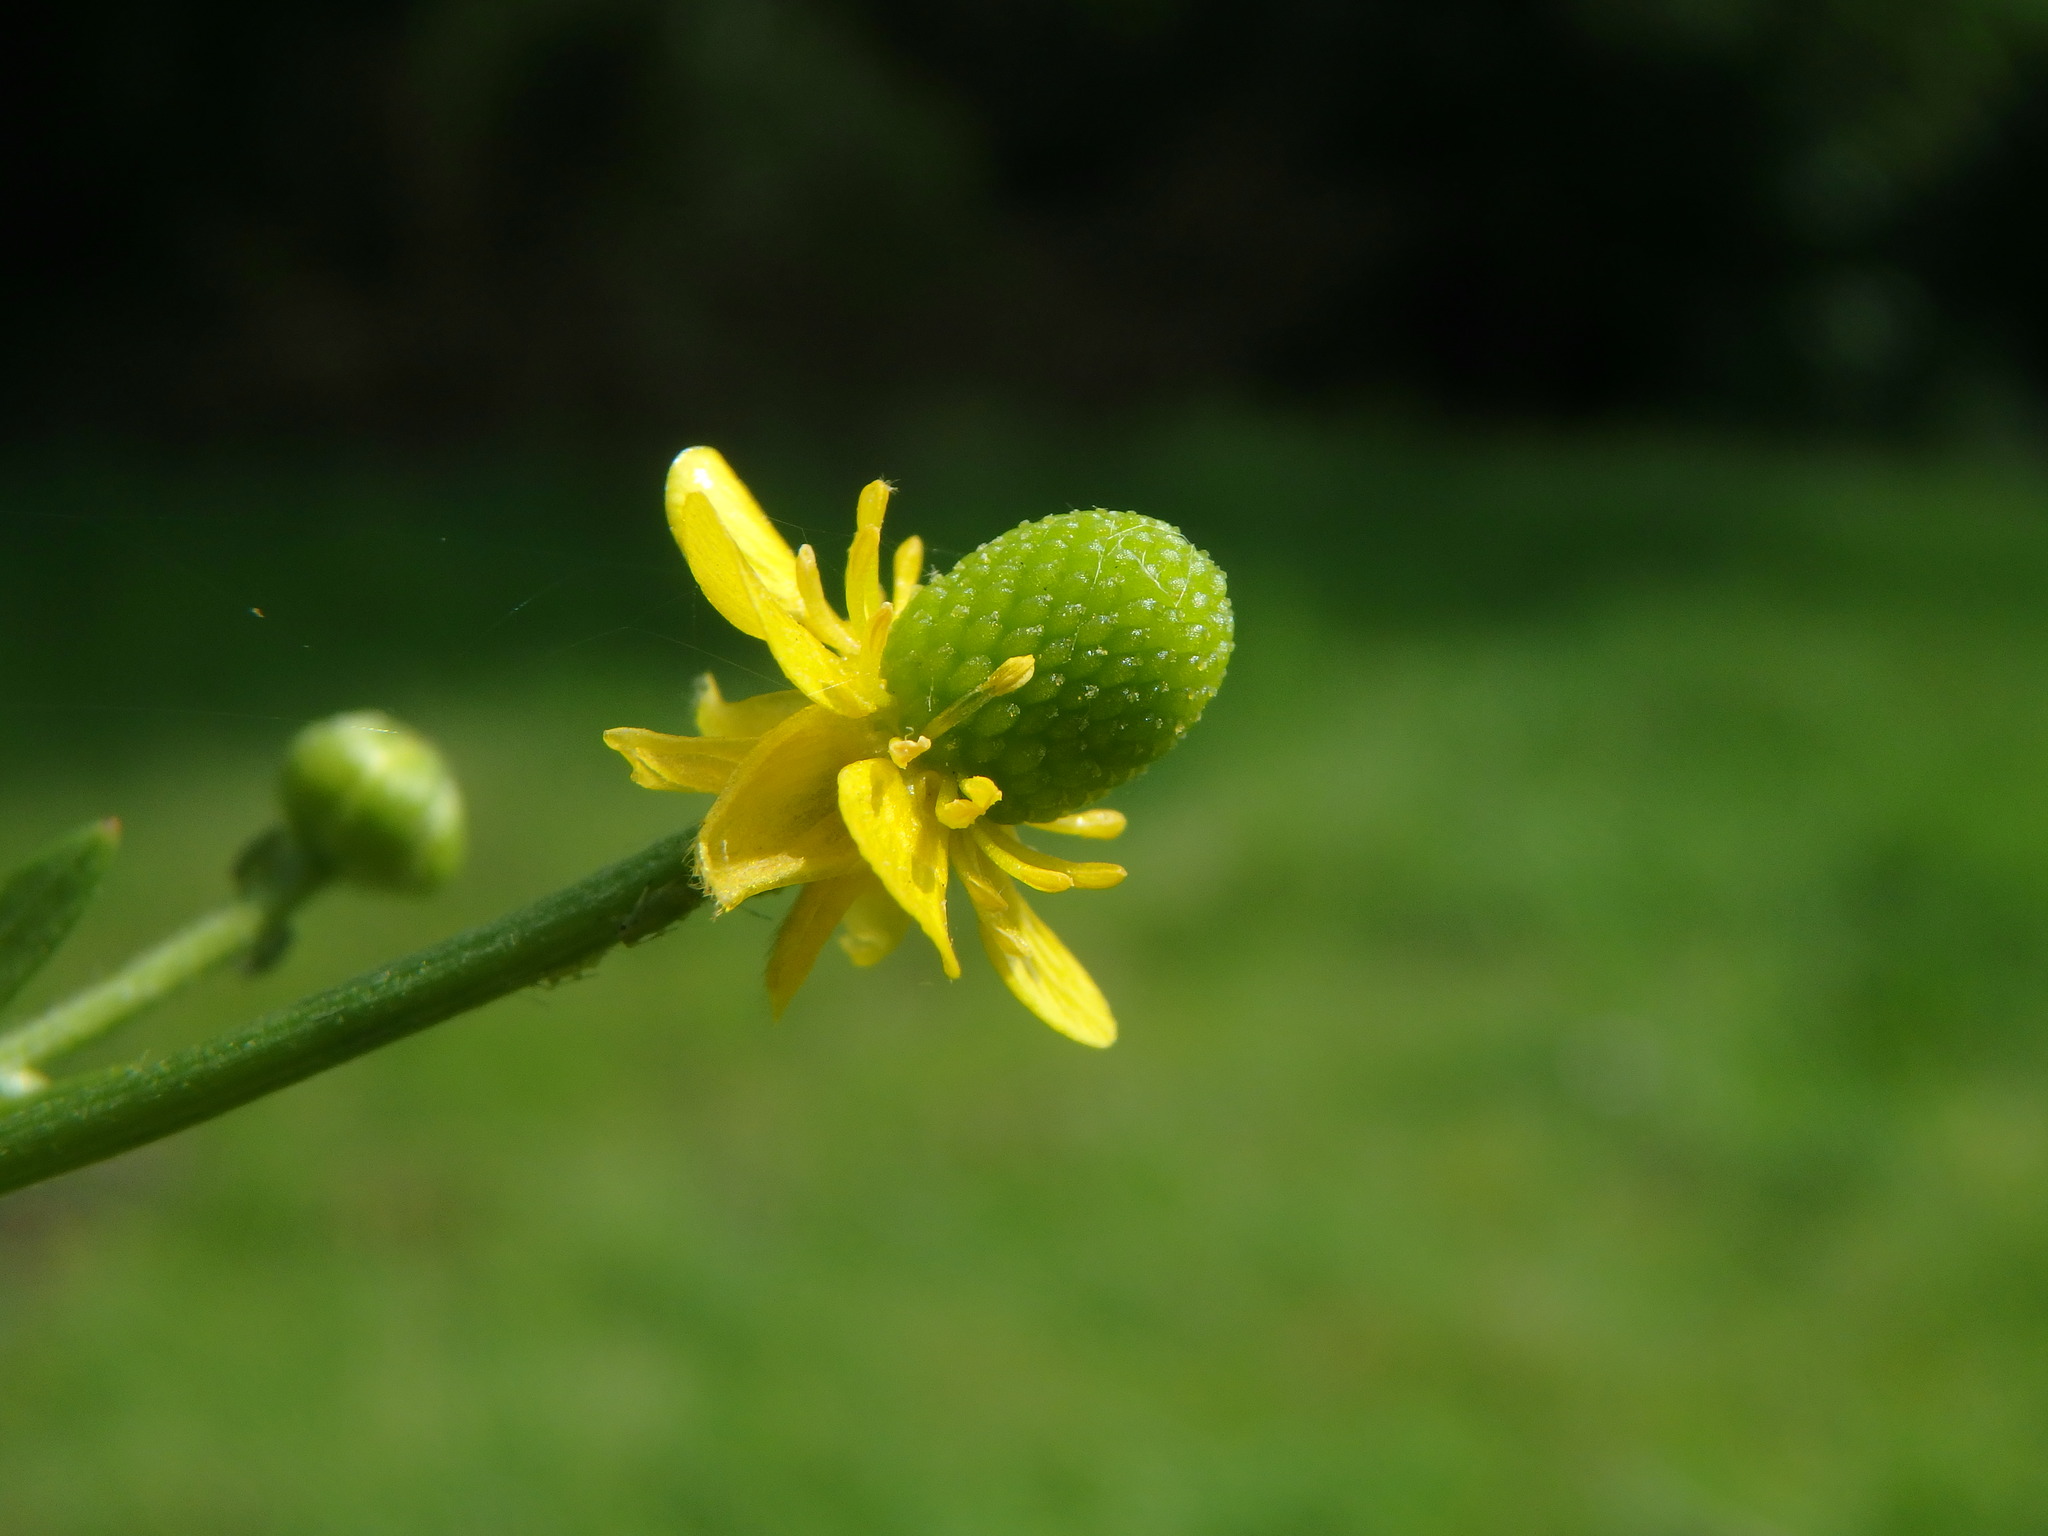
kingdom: Plantae
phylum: Tracheophyta
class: Magnoliopsida
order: Ranunculales
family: Ranunculaceae
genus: Ranunculus
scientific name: Ranunculus sceleratus
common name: Celery-leaved buttercup
